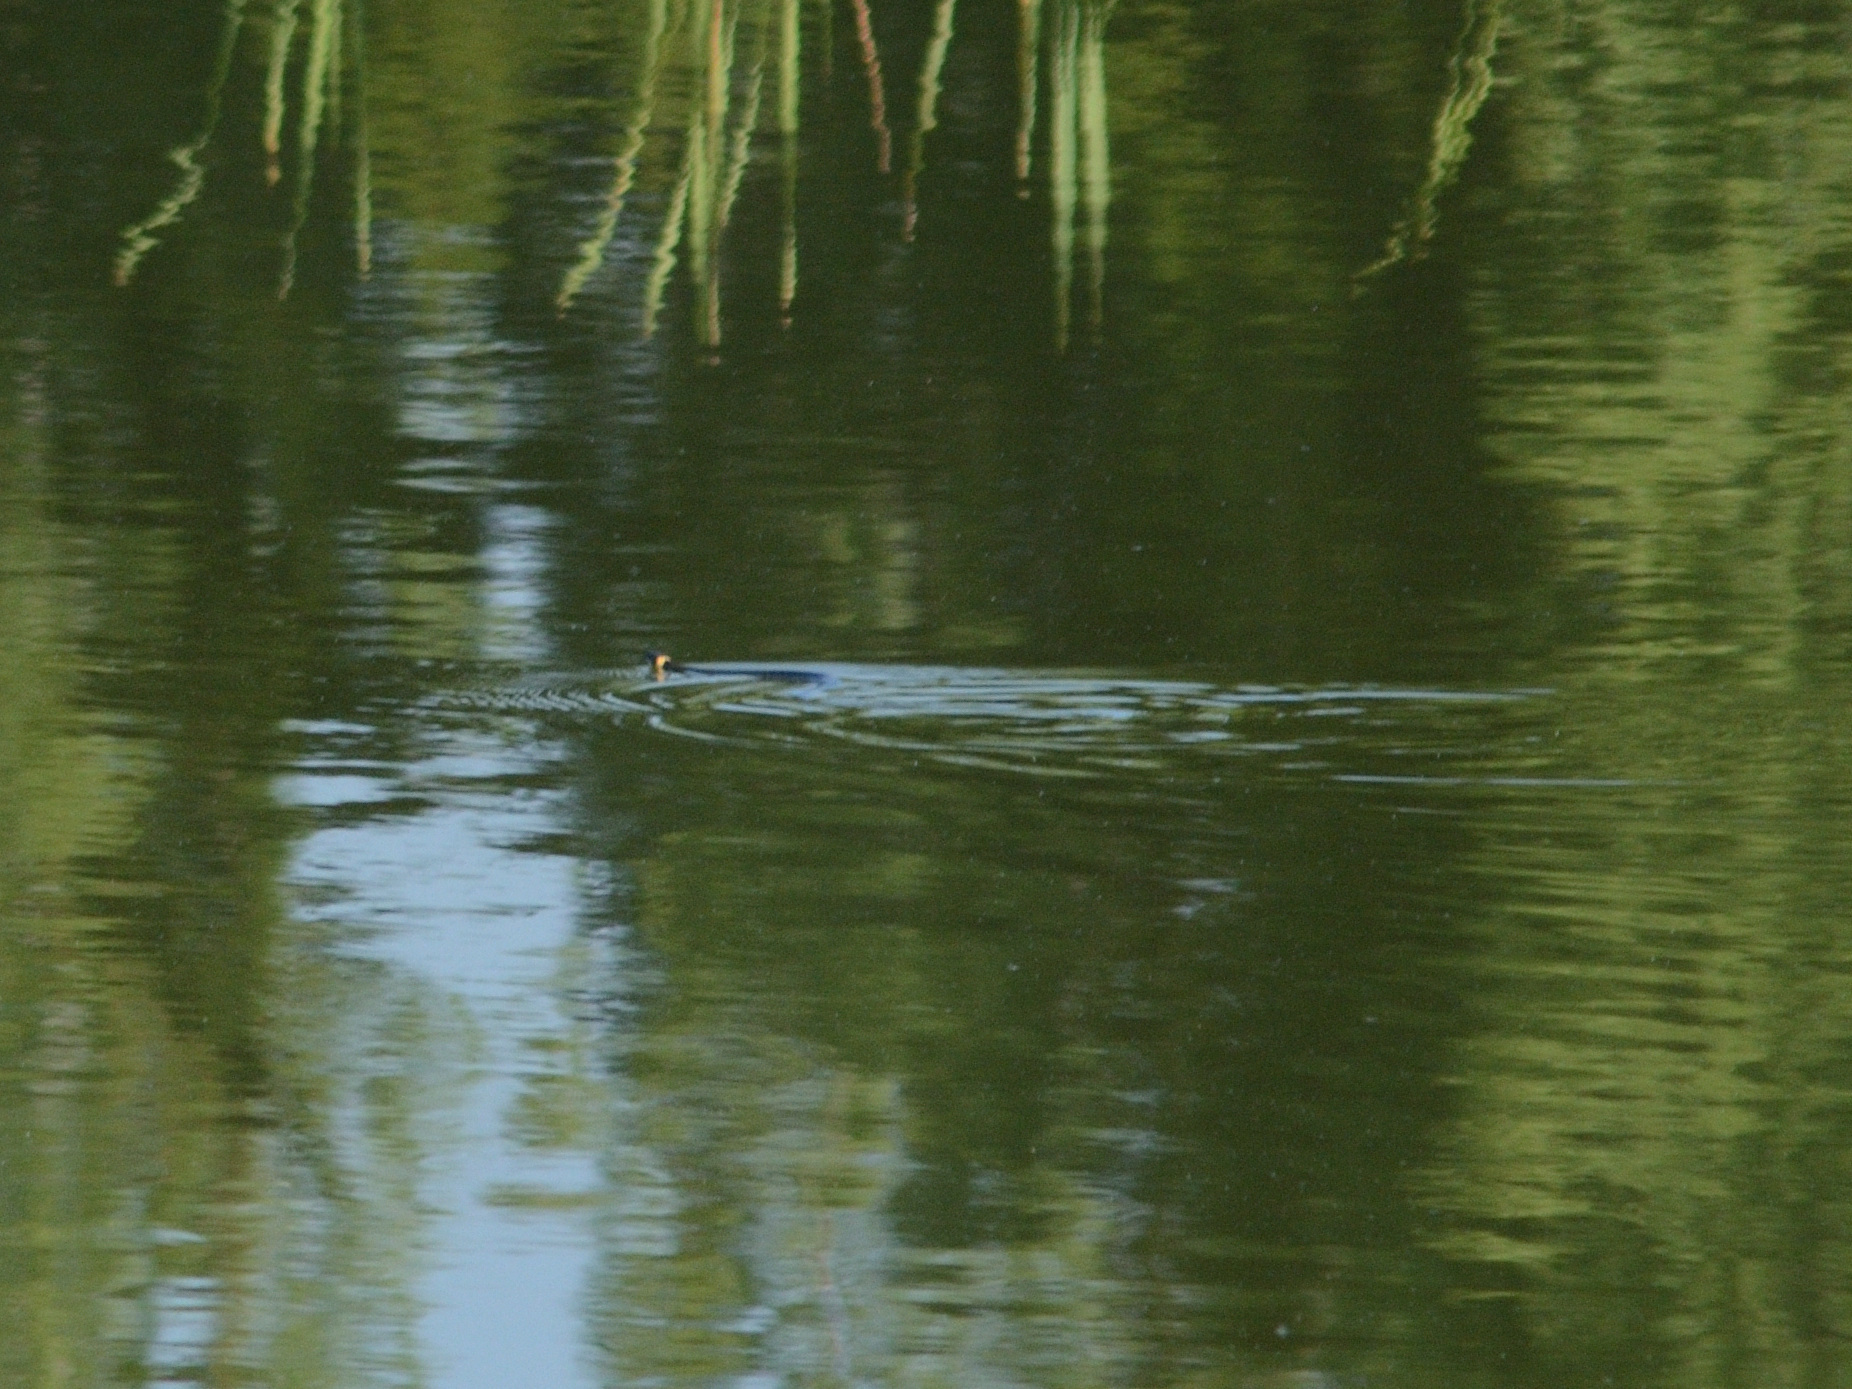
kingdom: Animalia
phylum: Chordata
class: Squamata
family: Colubridae
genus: Natrix
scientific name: Natrix natrix
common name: Grass snake
